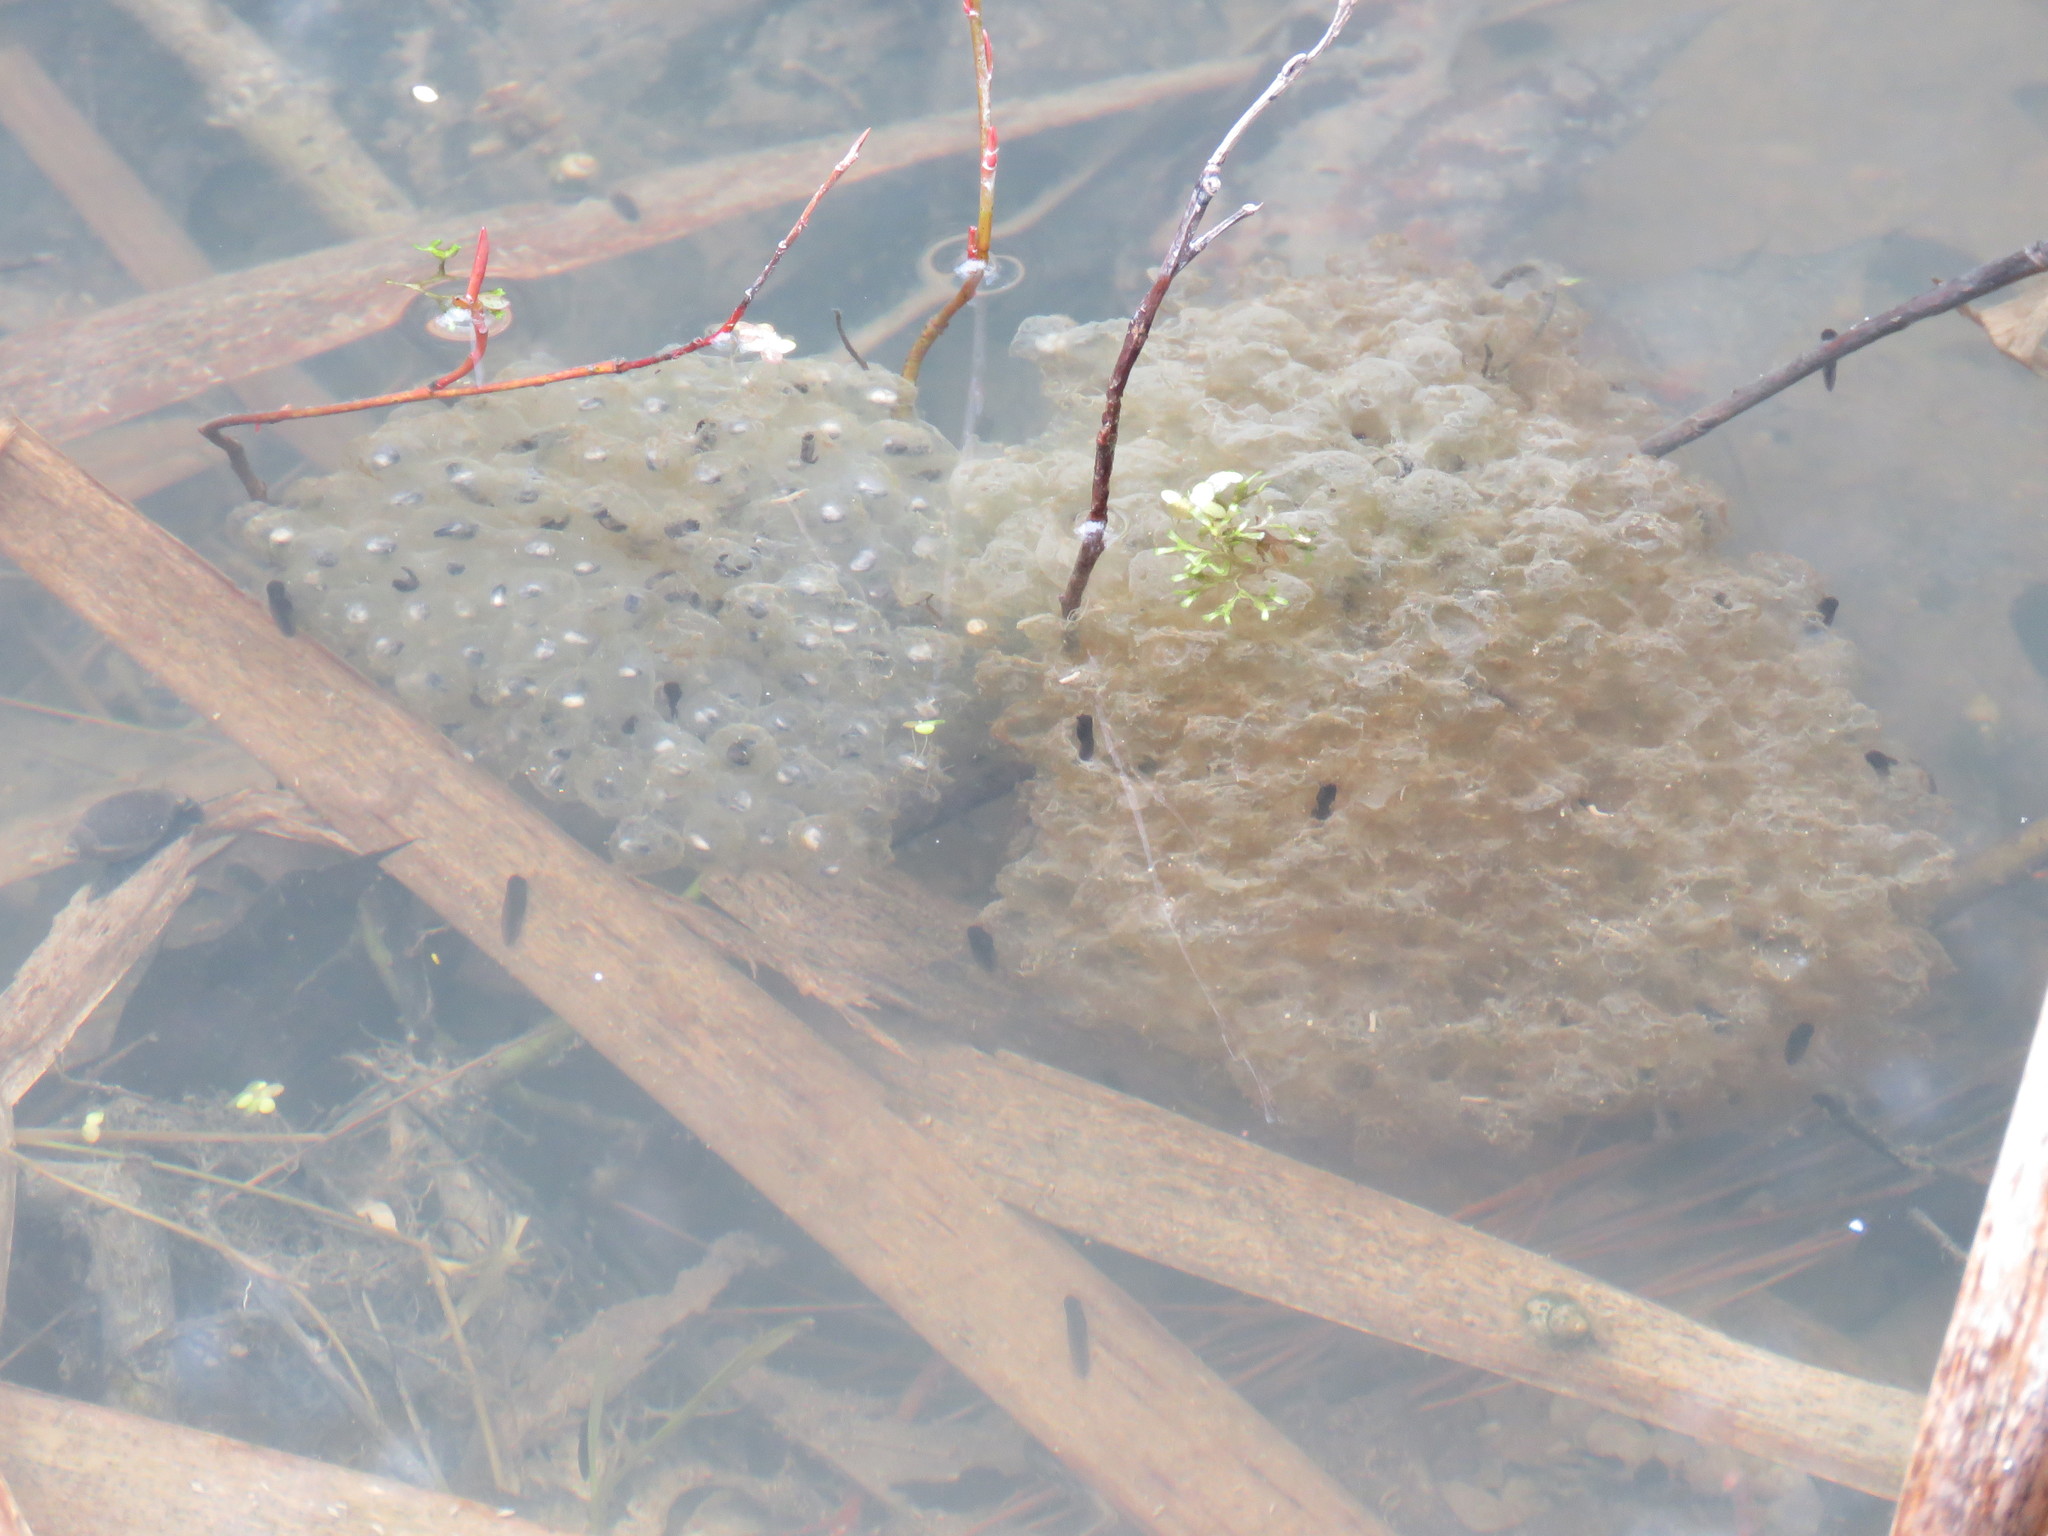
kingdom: Animalia
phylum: Chordata
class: Amphibia
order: Anura
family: Ranidae
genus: Lithobates
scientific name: Lithobates sylvaticus
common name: Wood frog
